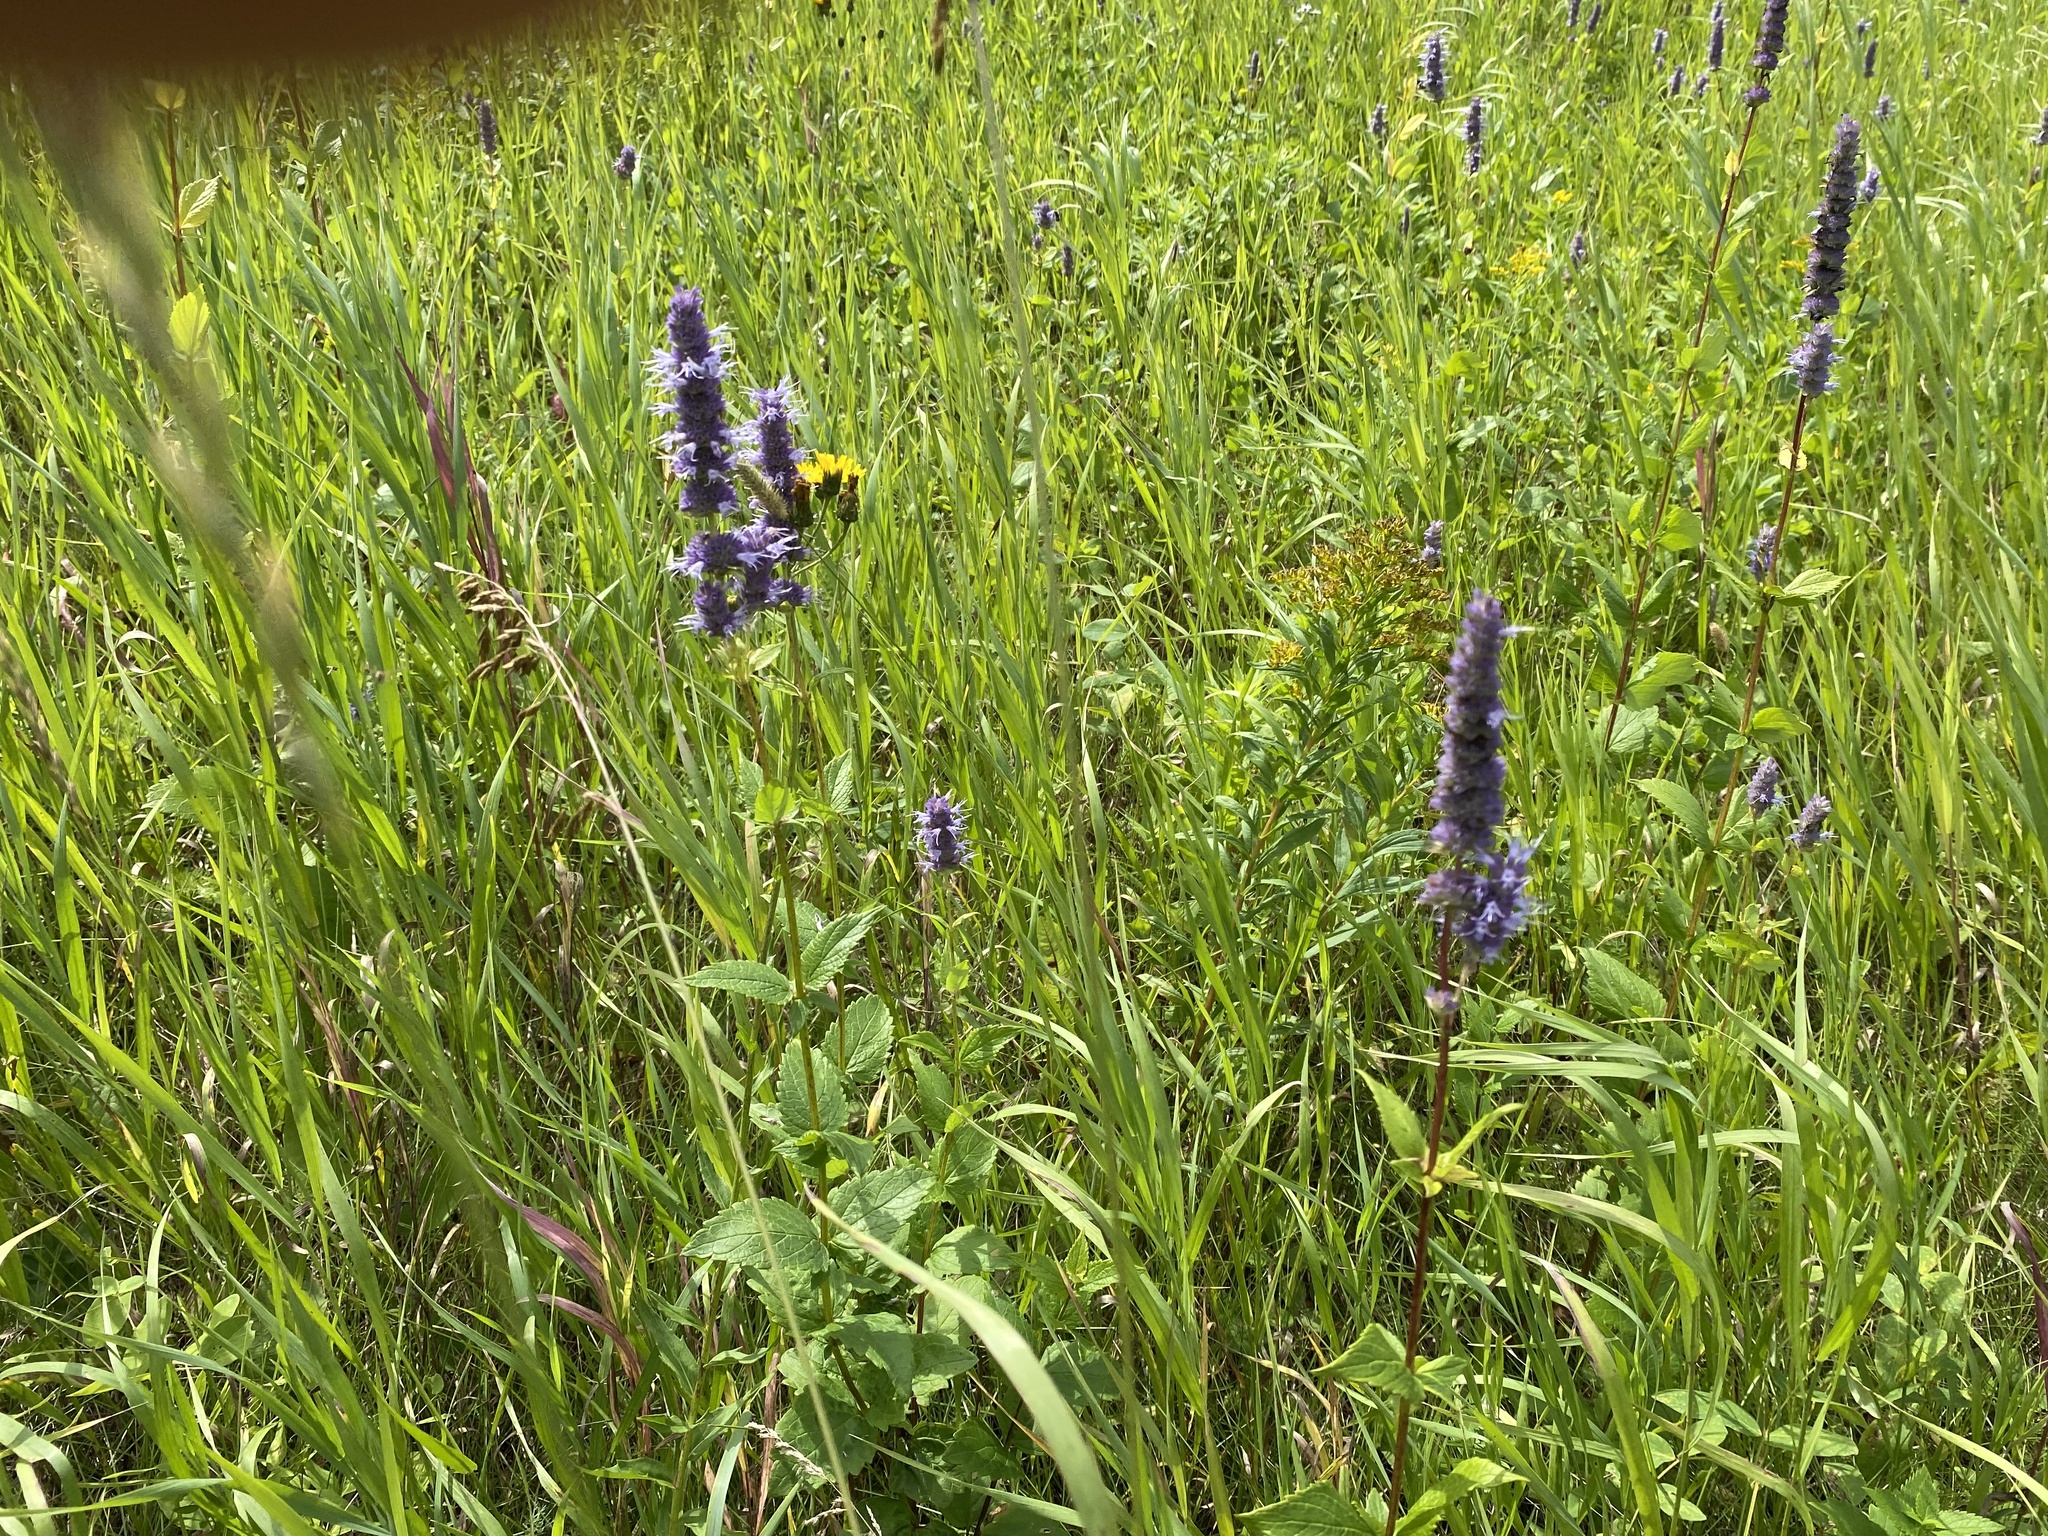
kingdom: Plantae
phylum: Tracheophyta
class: Magnoliopsida
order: Lamiales
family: Lamiaceae
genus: Agastache
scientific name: Agastache foeniculum
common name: Anise hyssop
